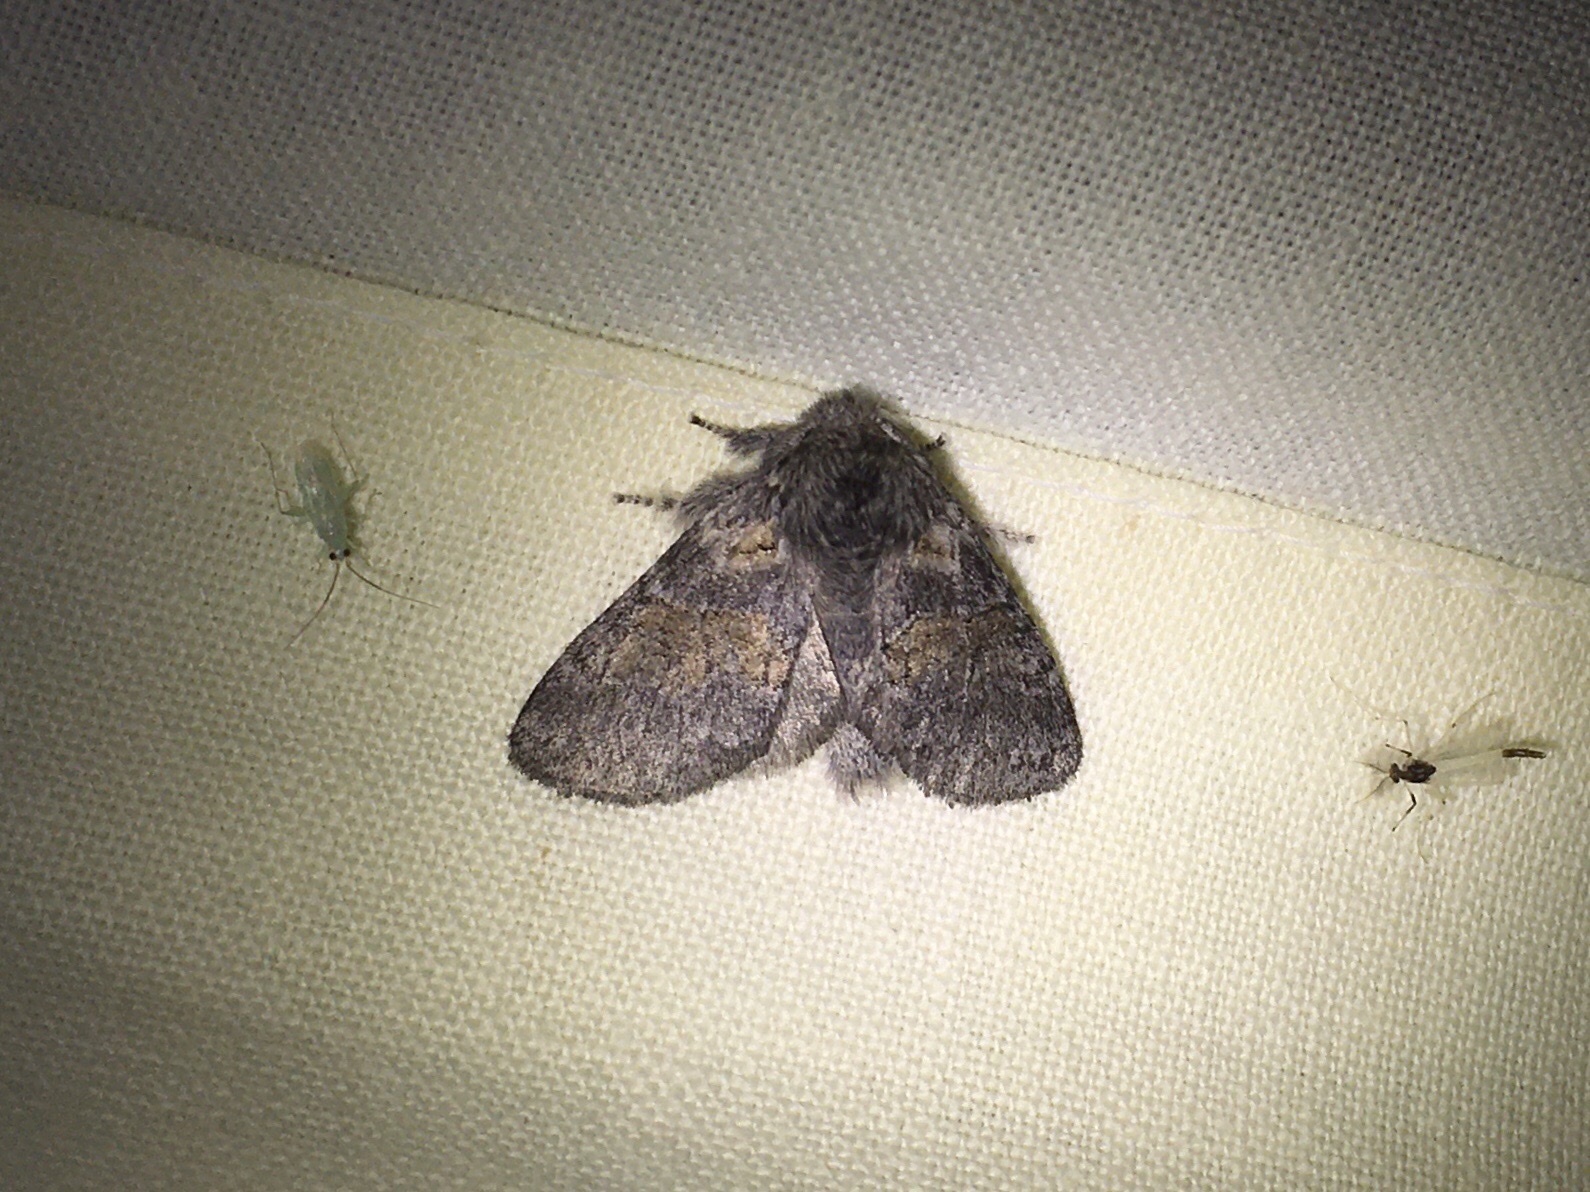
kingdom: Animalia
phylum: Arthropoda
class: Insecta
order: Lepidoptera
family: Notodontidae
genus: Gluphisia
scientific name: Gluphisia septentrionis
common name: Common gluphisia
